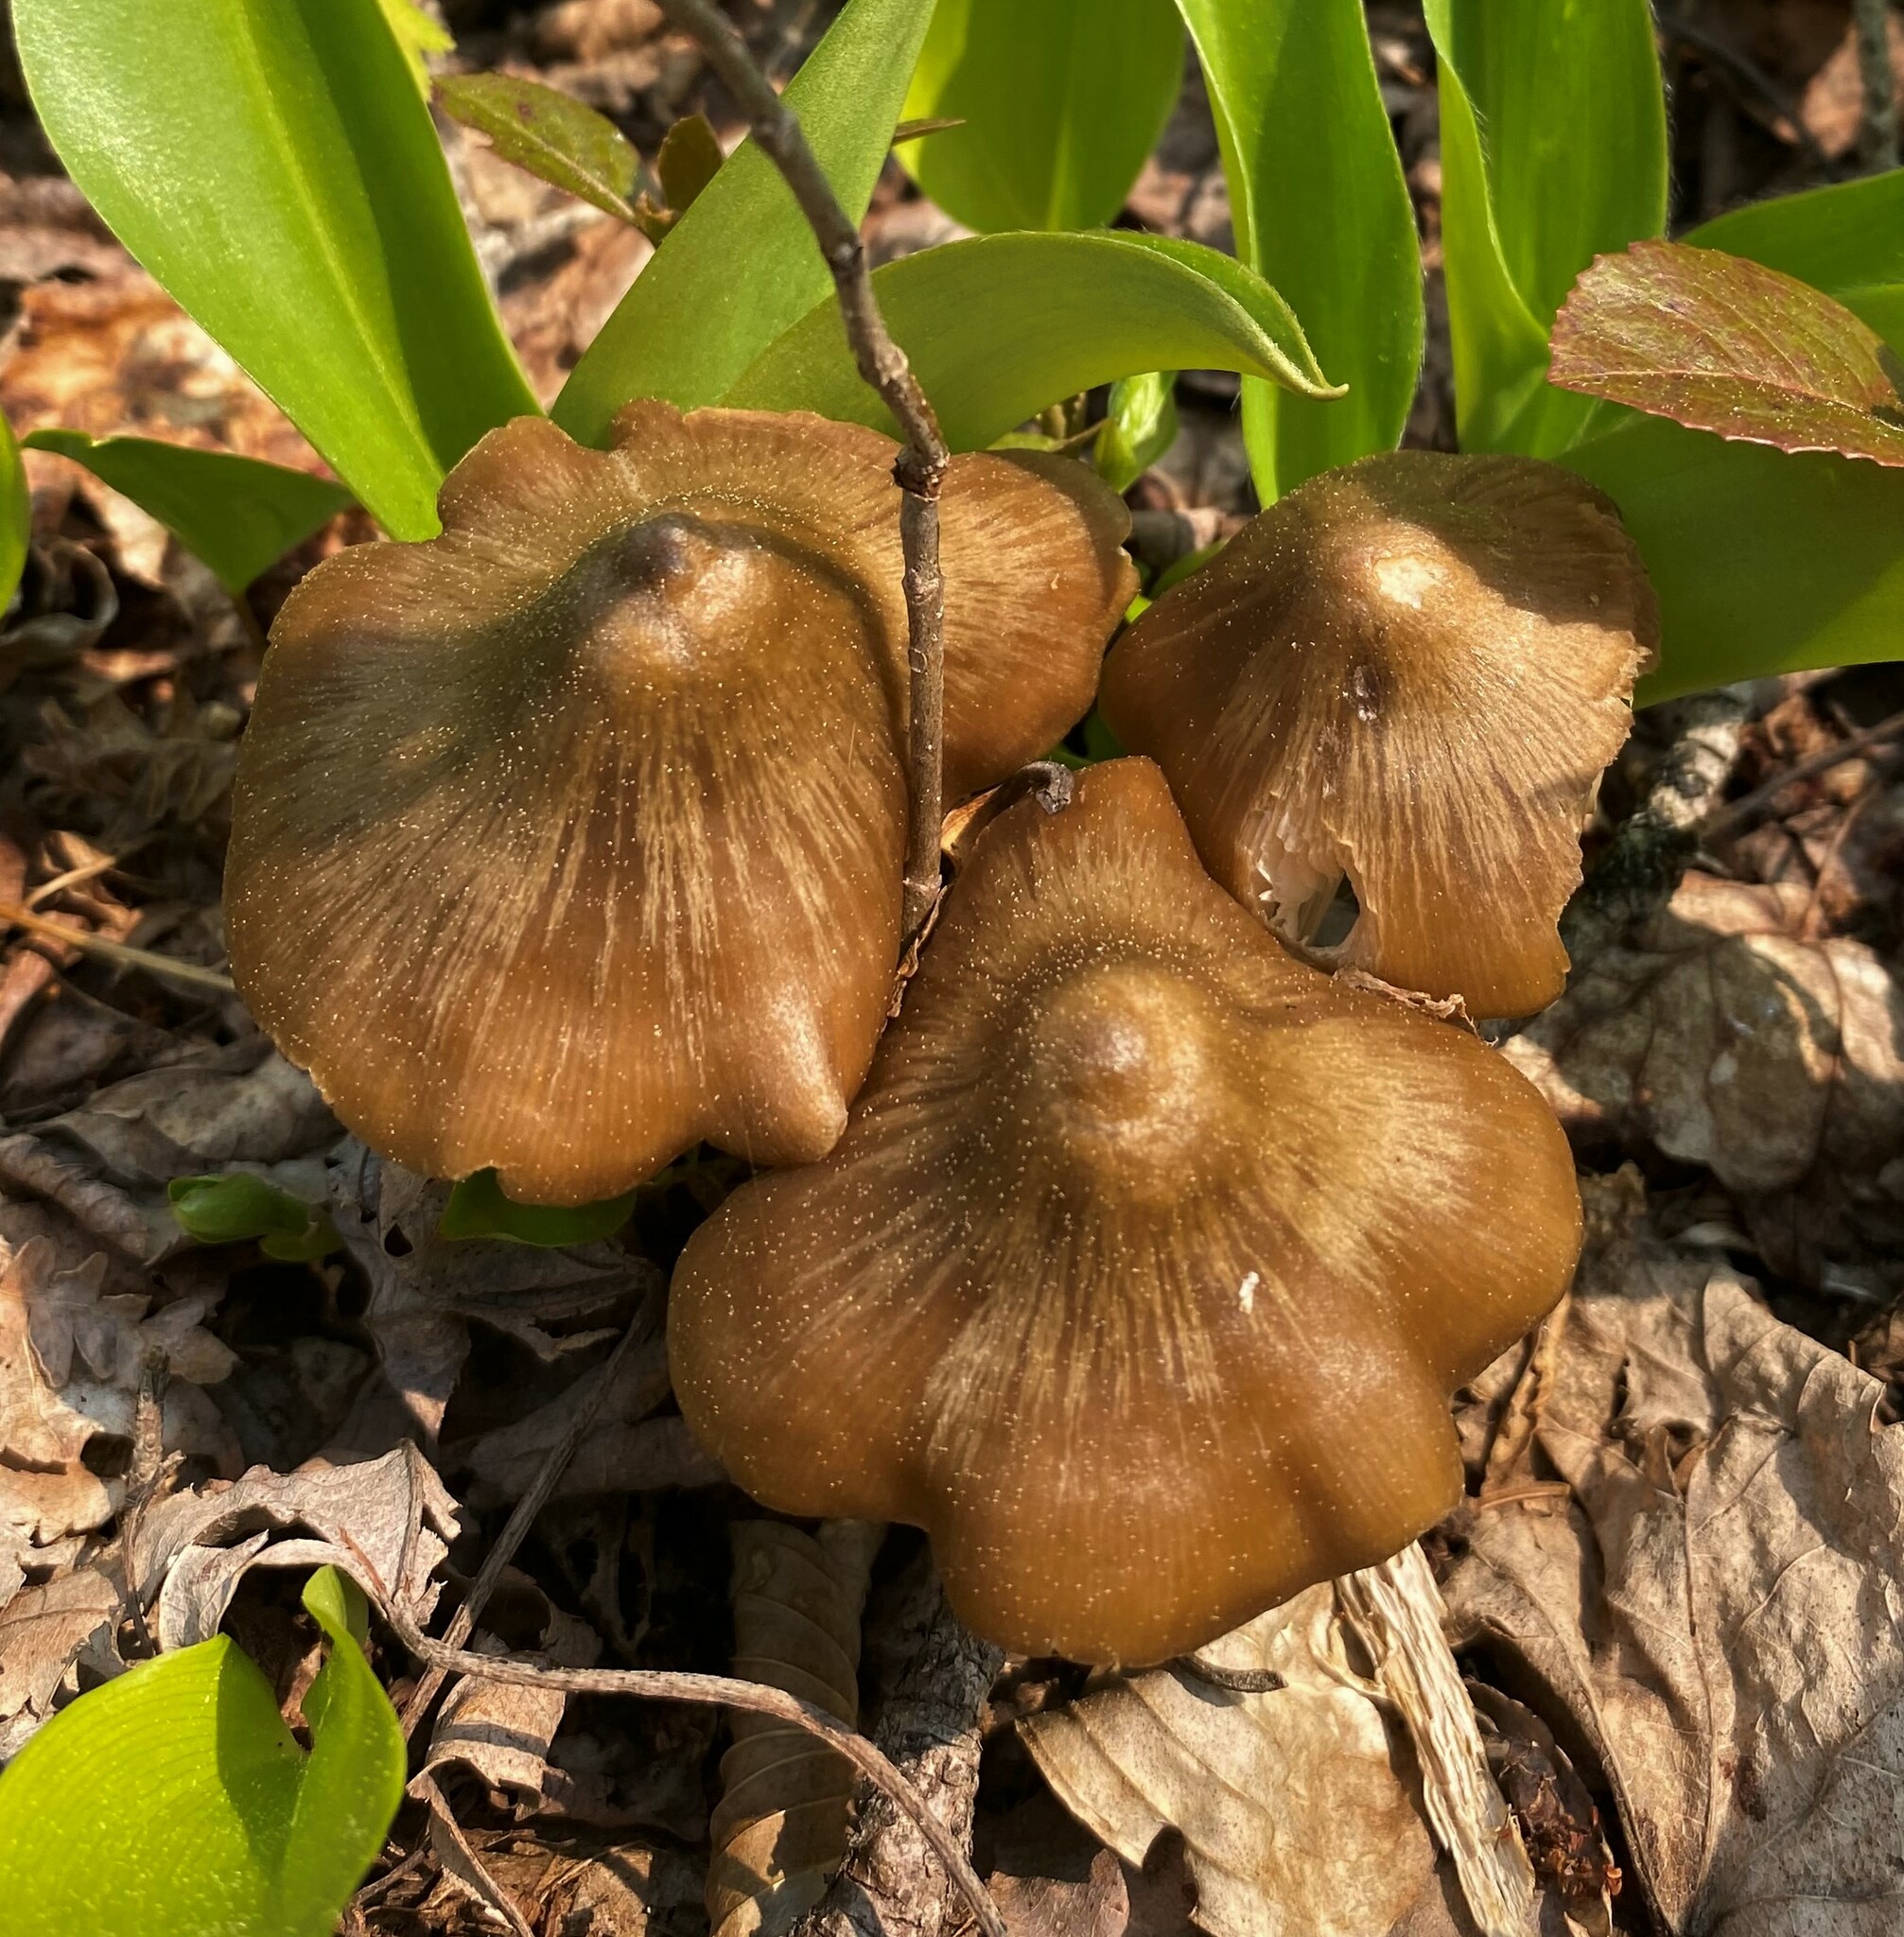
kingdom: Fungi
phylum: Basidiomycota
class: Agaricomycetes
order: Agaricales
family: Entolomataceae
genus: Entoloma
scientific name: Entoloma vernum
